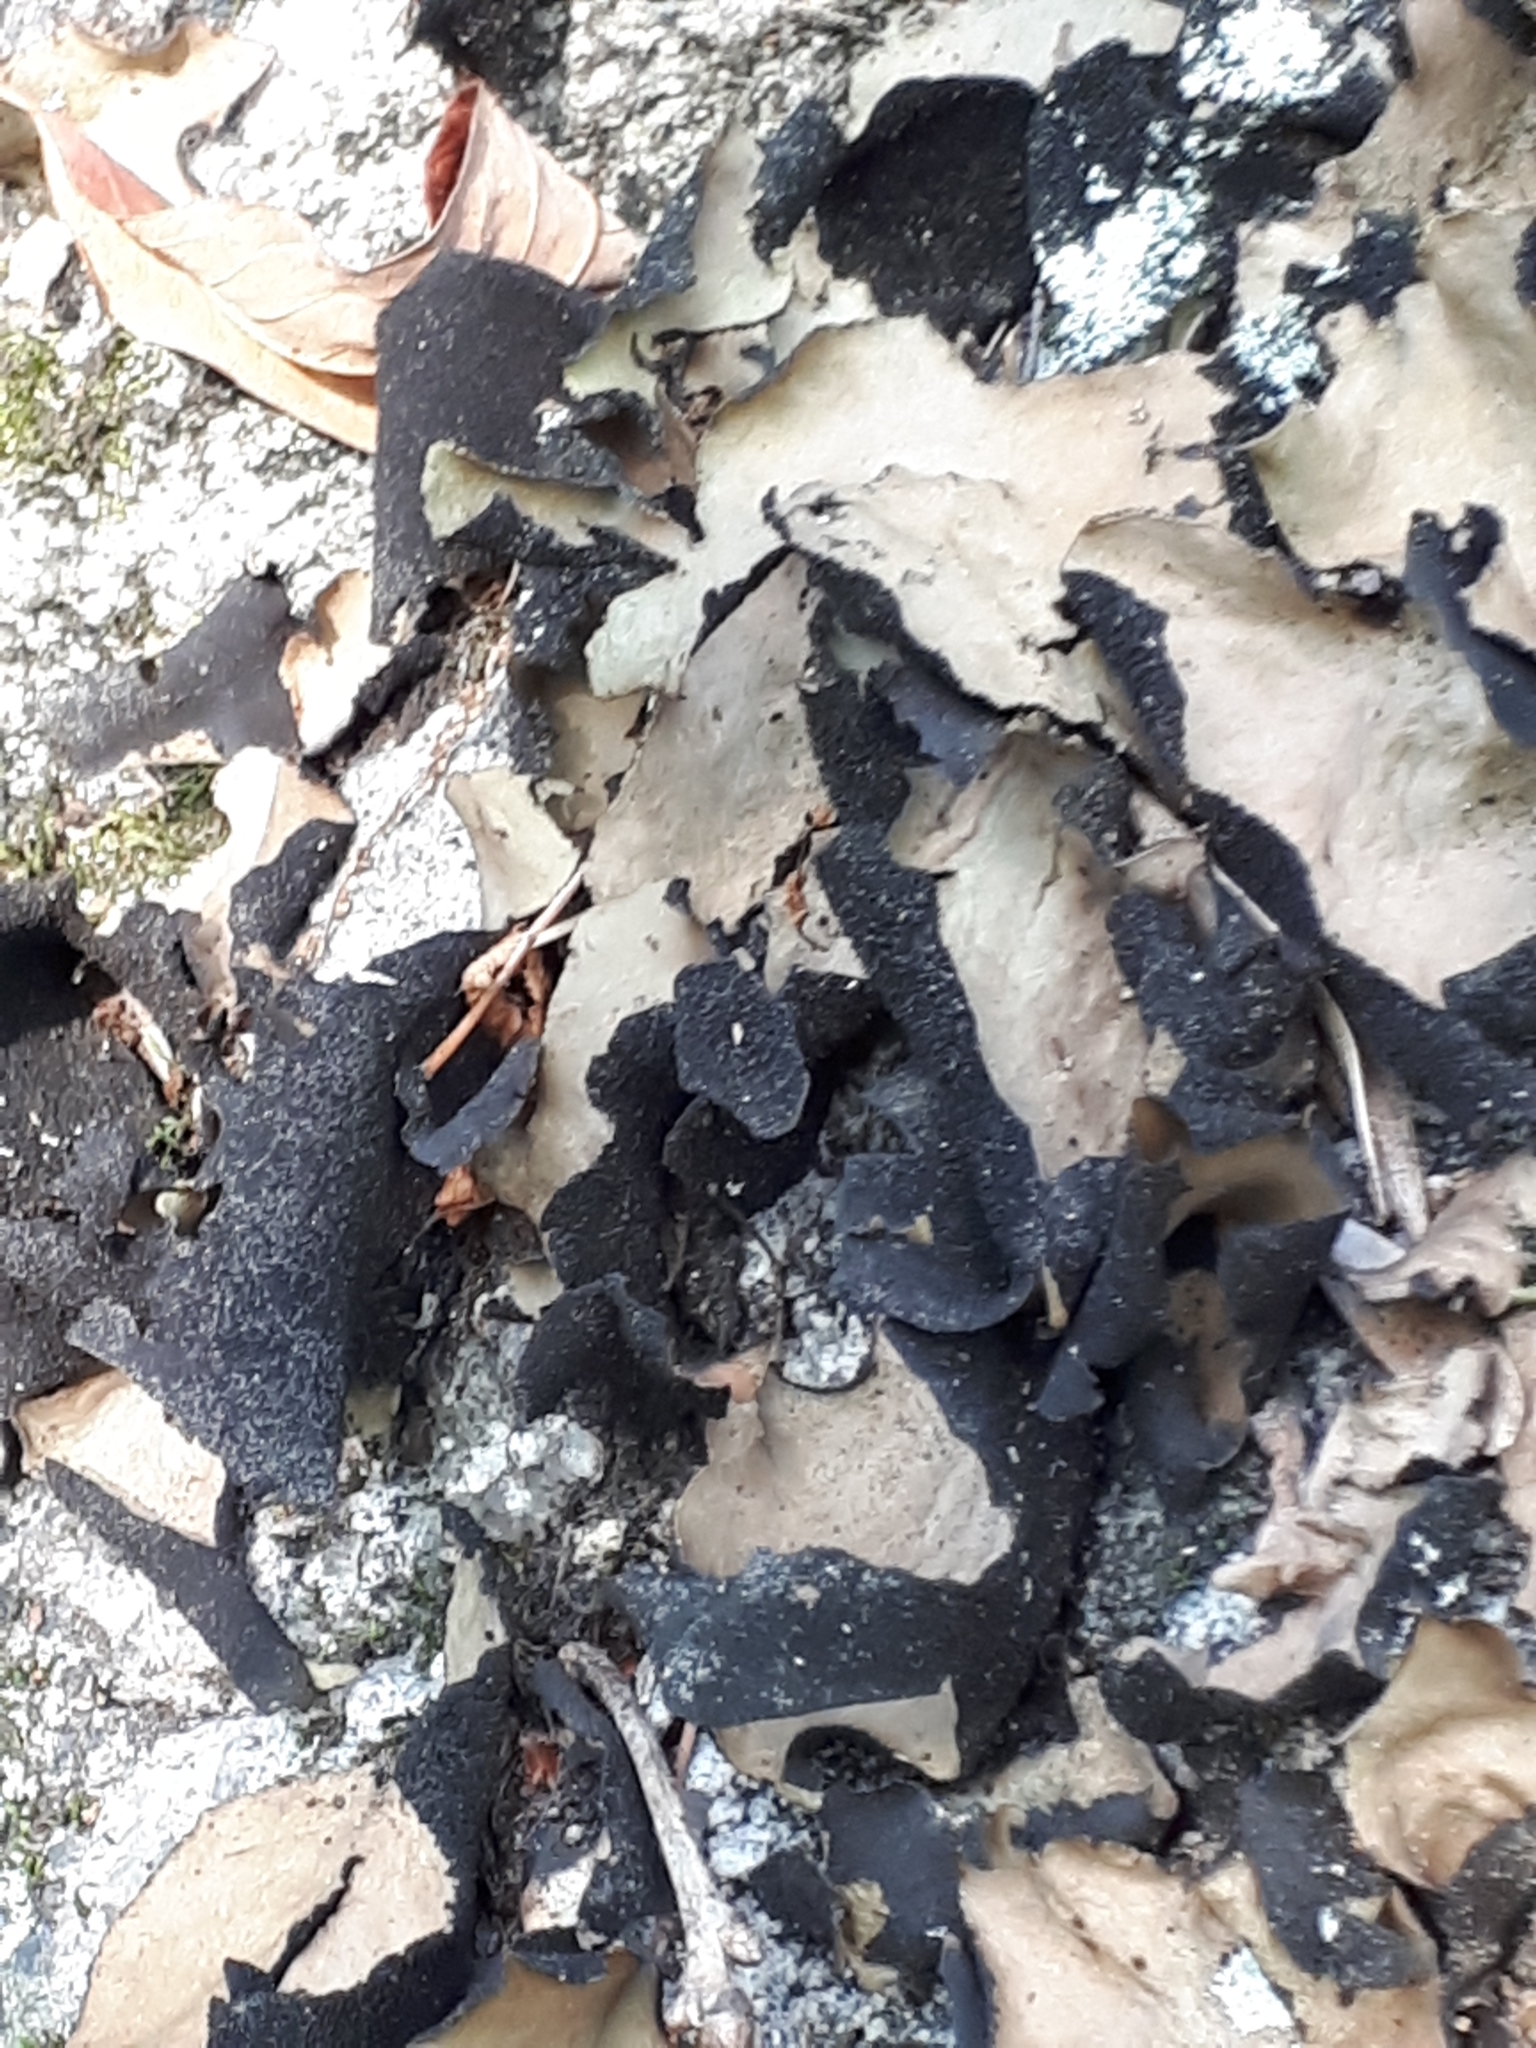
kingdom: Fungi
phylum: Ascomycota
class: Lecanoromycetes
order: Umbilicariales
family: Umbilicariaceae
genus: Umbilicaria
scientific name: Umbilicaria mammulata
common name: Smooth rock tripe
